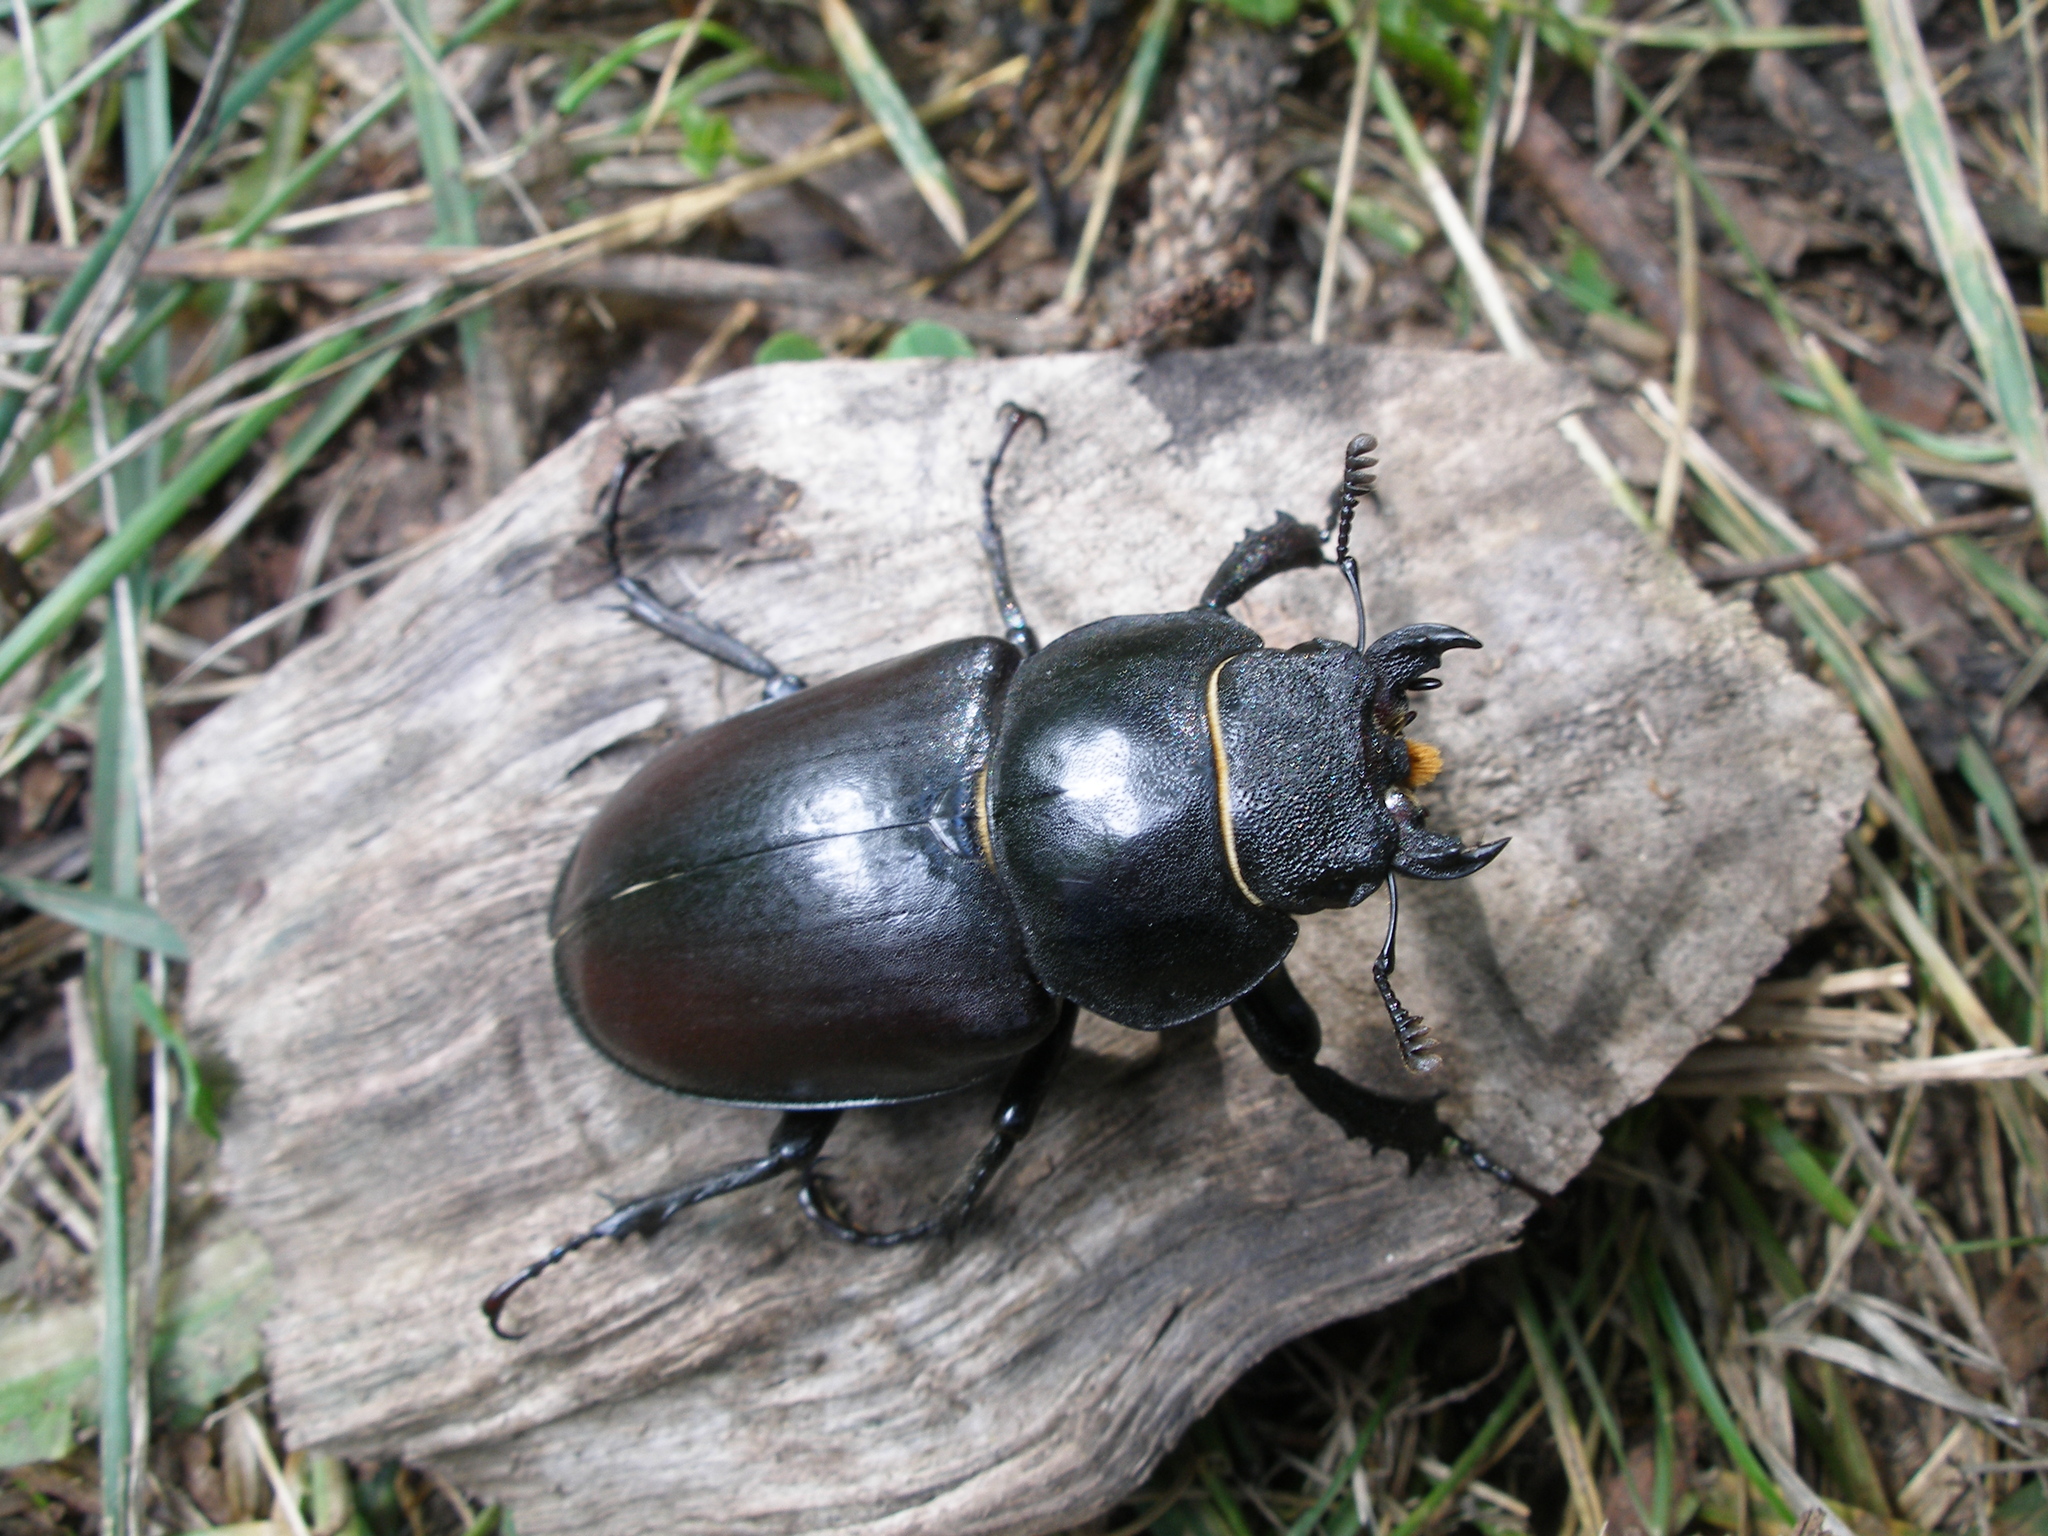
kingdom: Animalia
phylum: Arthropoda
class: Insecta
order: Coleoptera
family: Lucanidae
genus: Lucanus
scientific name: Lucanus cervus
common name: Stag beetle
